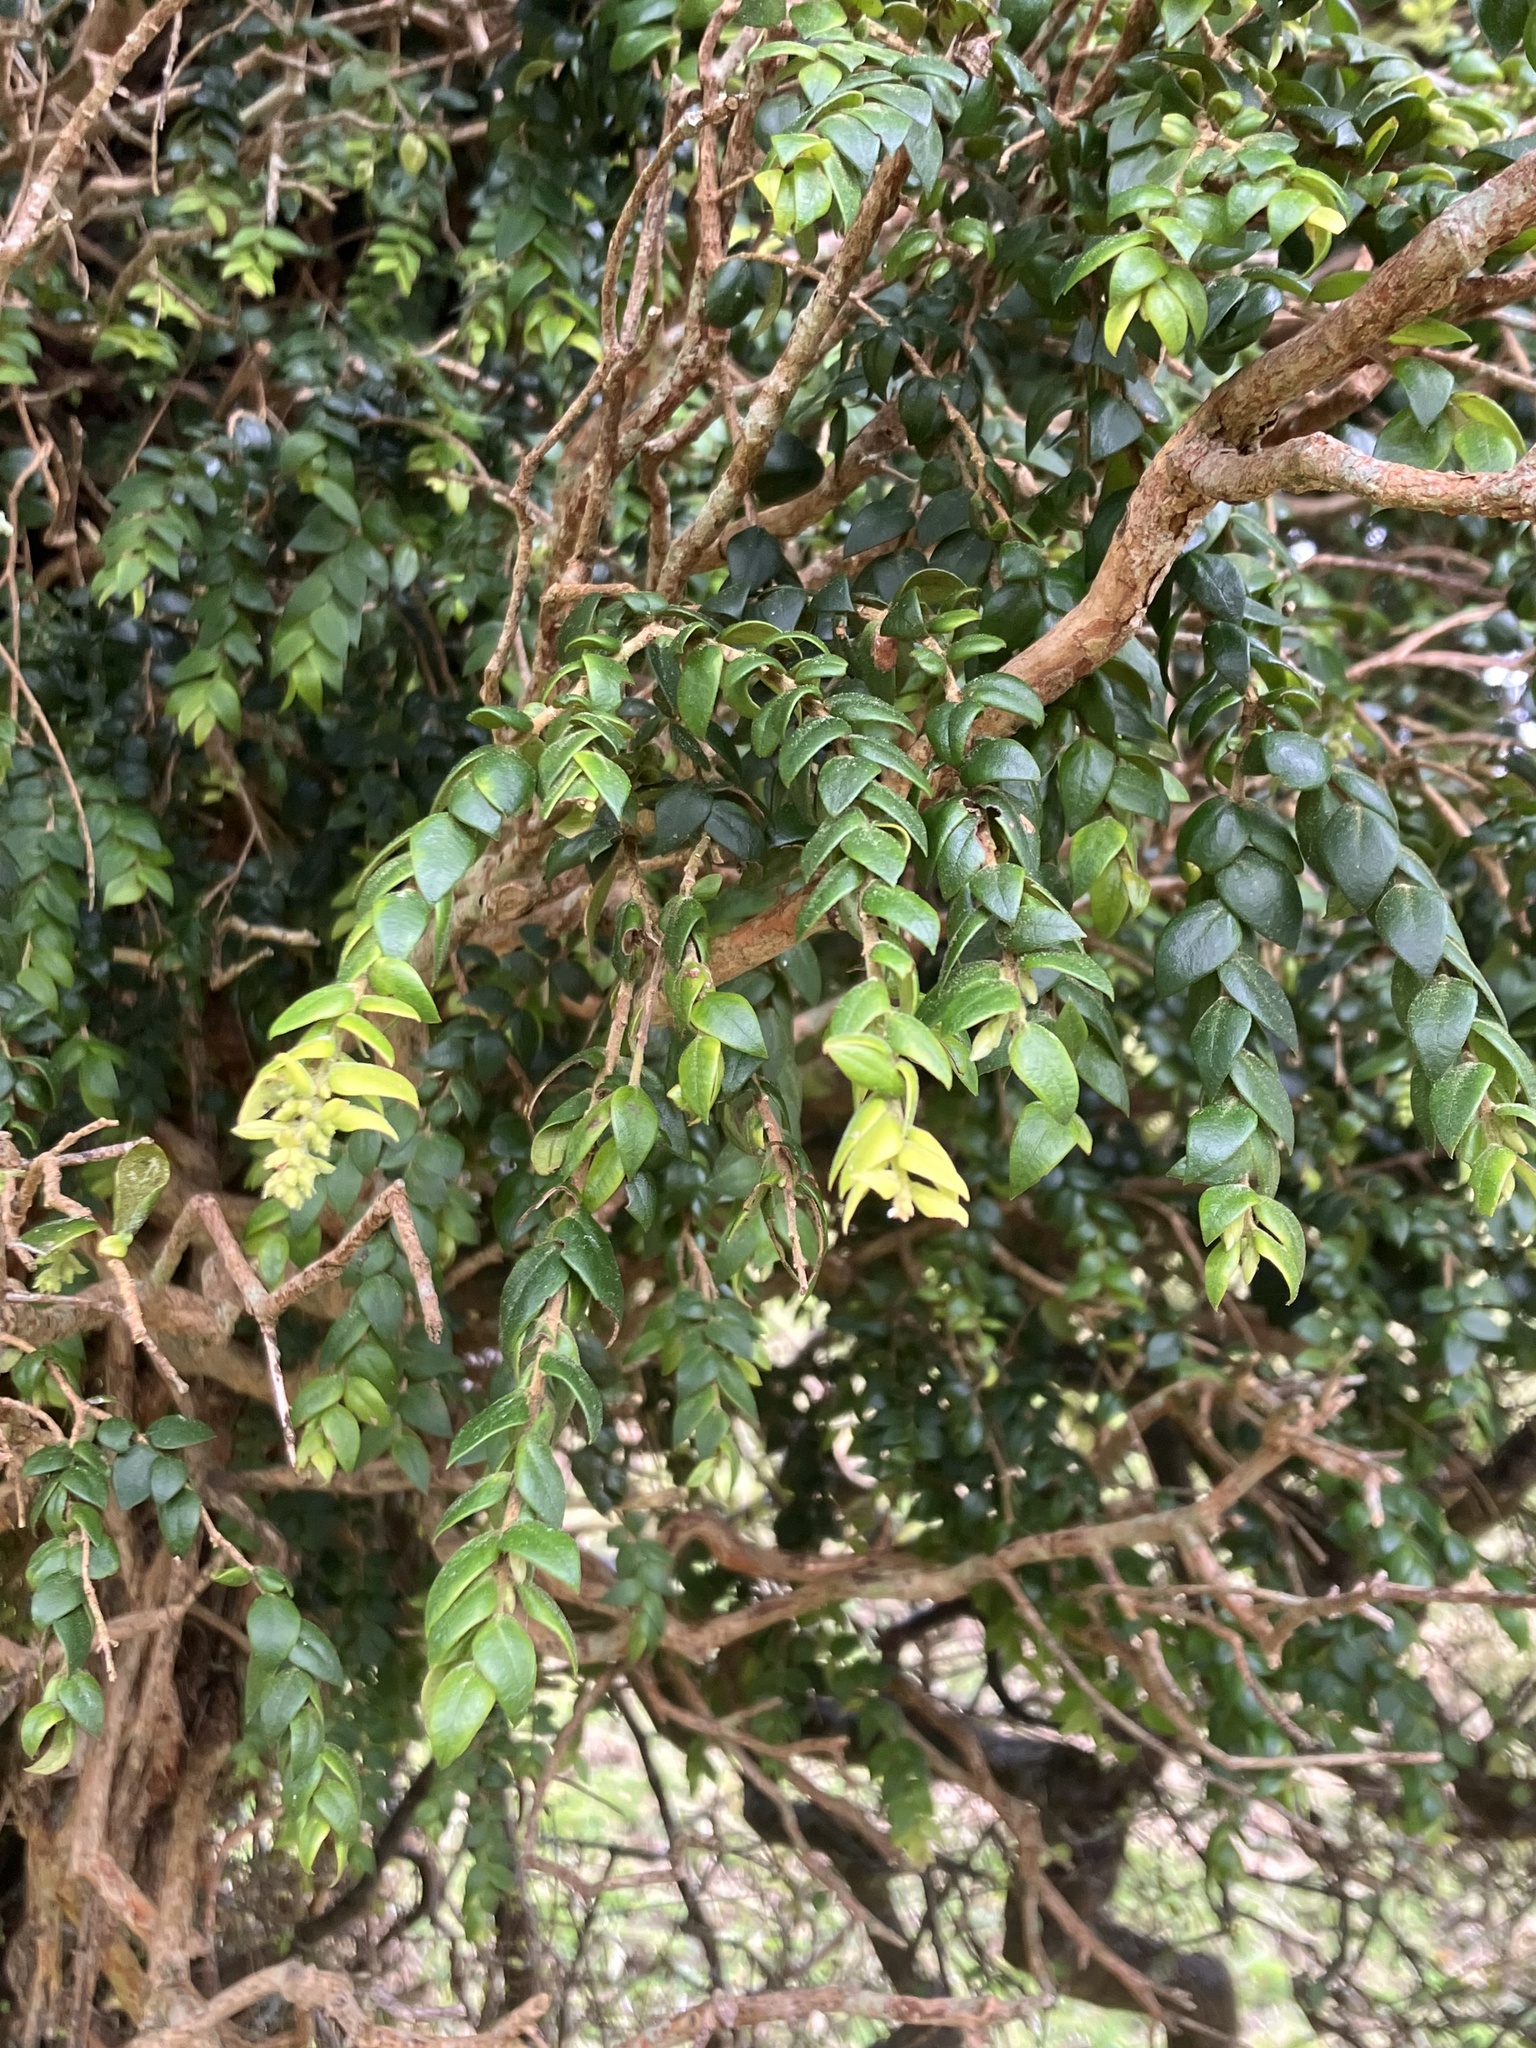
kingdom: Plantae
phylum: Tracheophyta
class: Magnoliopsida
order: Myrtales
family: Myrtaceae
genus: Metrosideros
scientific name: Metrosideros colensoi
